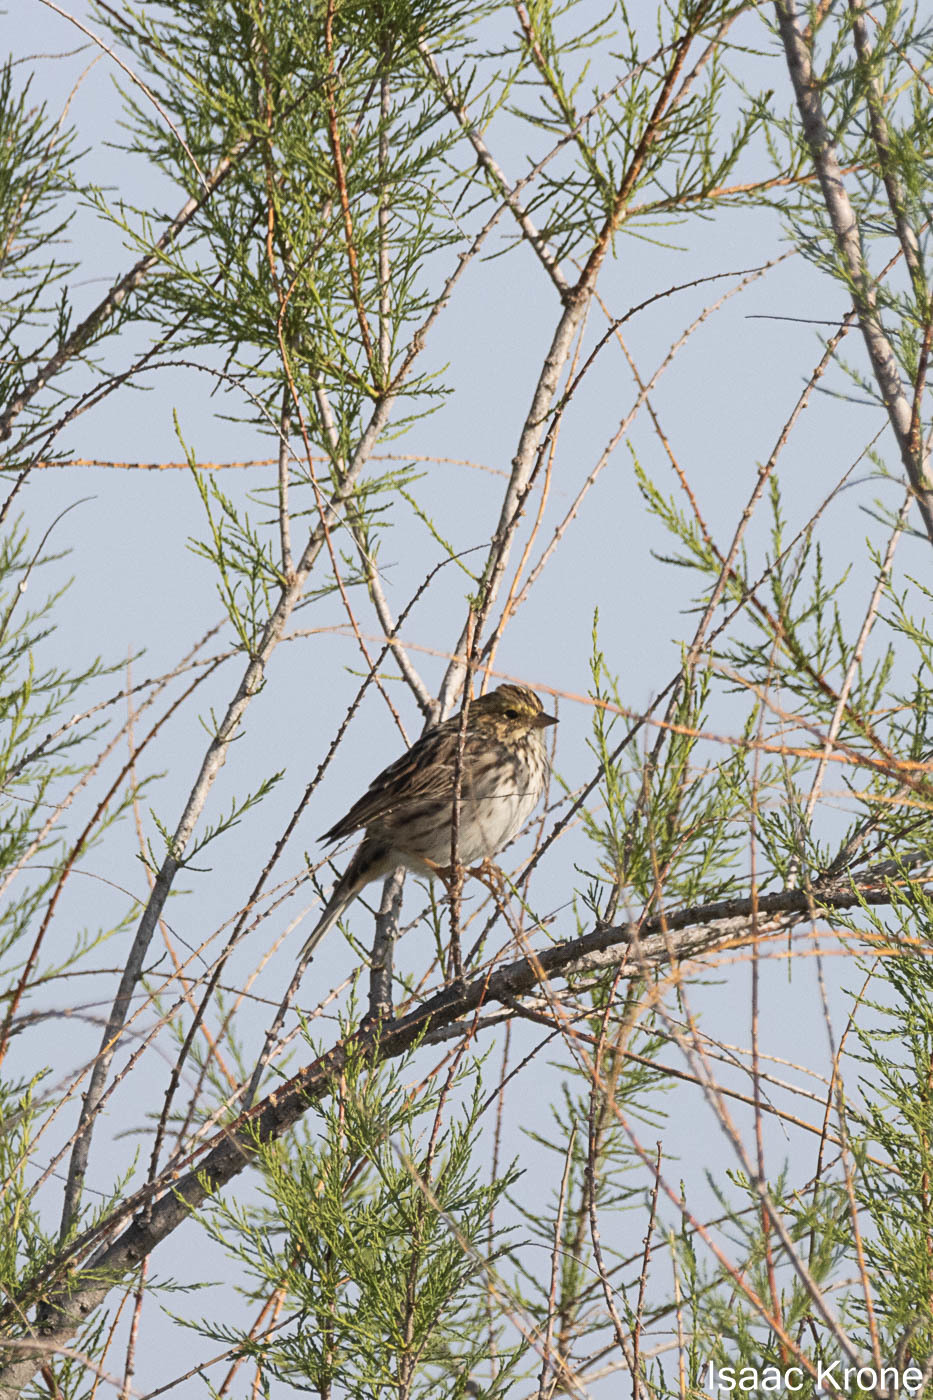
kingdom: Animalia
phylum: Chordata
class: Aves
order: Passeriformes
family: Passerellidae
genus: Passerculus
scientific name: Passerculus sandwichensis
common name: Savannah sparrow
